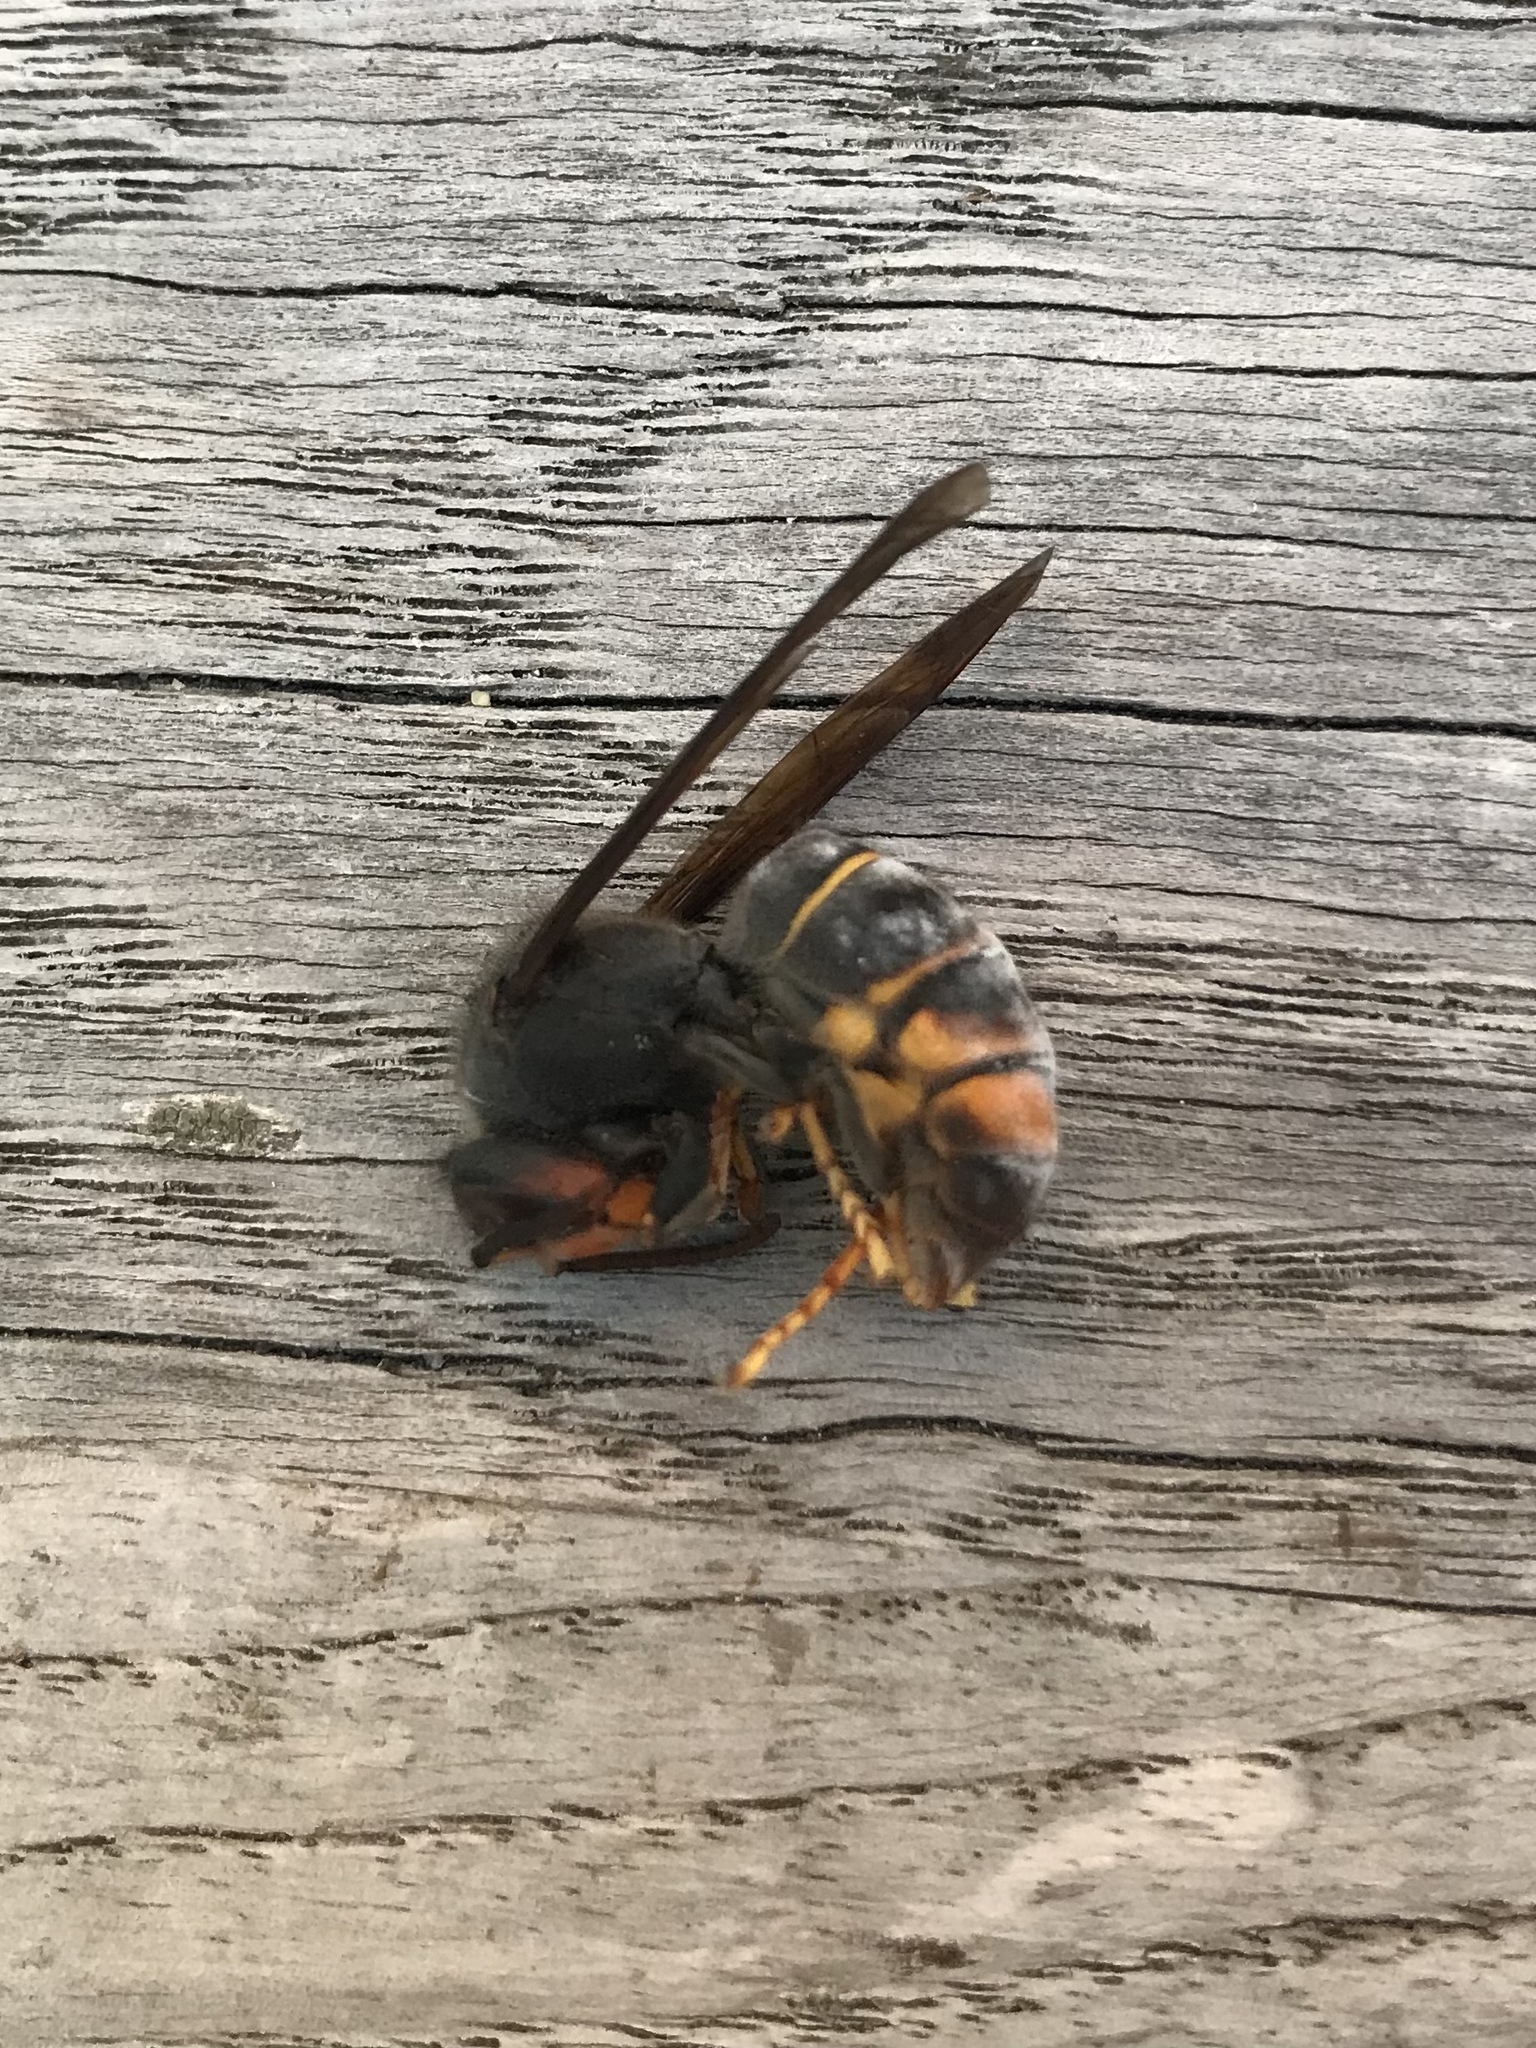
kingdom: Animalia
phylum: Arthropoda
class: Insecta
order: Hymenoptera
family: Vespidae
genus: Vespa
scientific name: Vespa velutina
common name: Asian hornet
